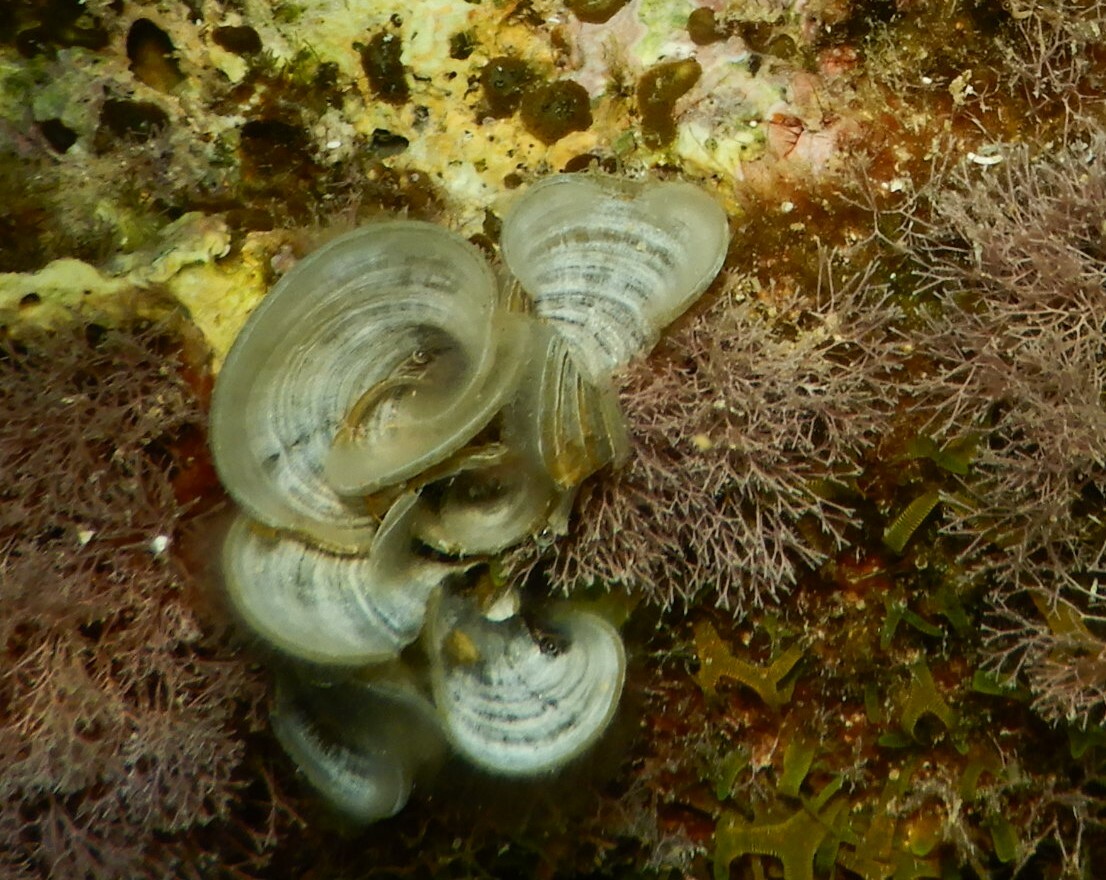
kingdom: Chromista
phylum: Ochrophyta
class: Phaeophyceae
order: Dictyotales
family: Dictyotaceae
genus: Padina
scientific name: Padina pavonica
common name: Turkey feather alga
